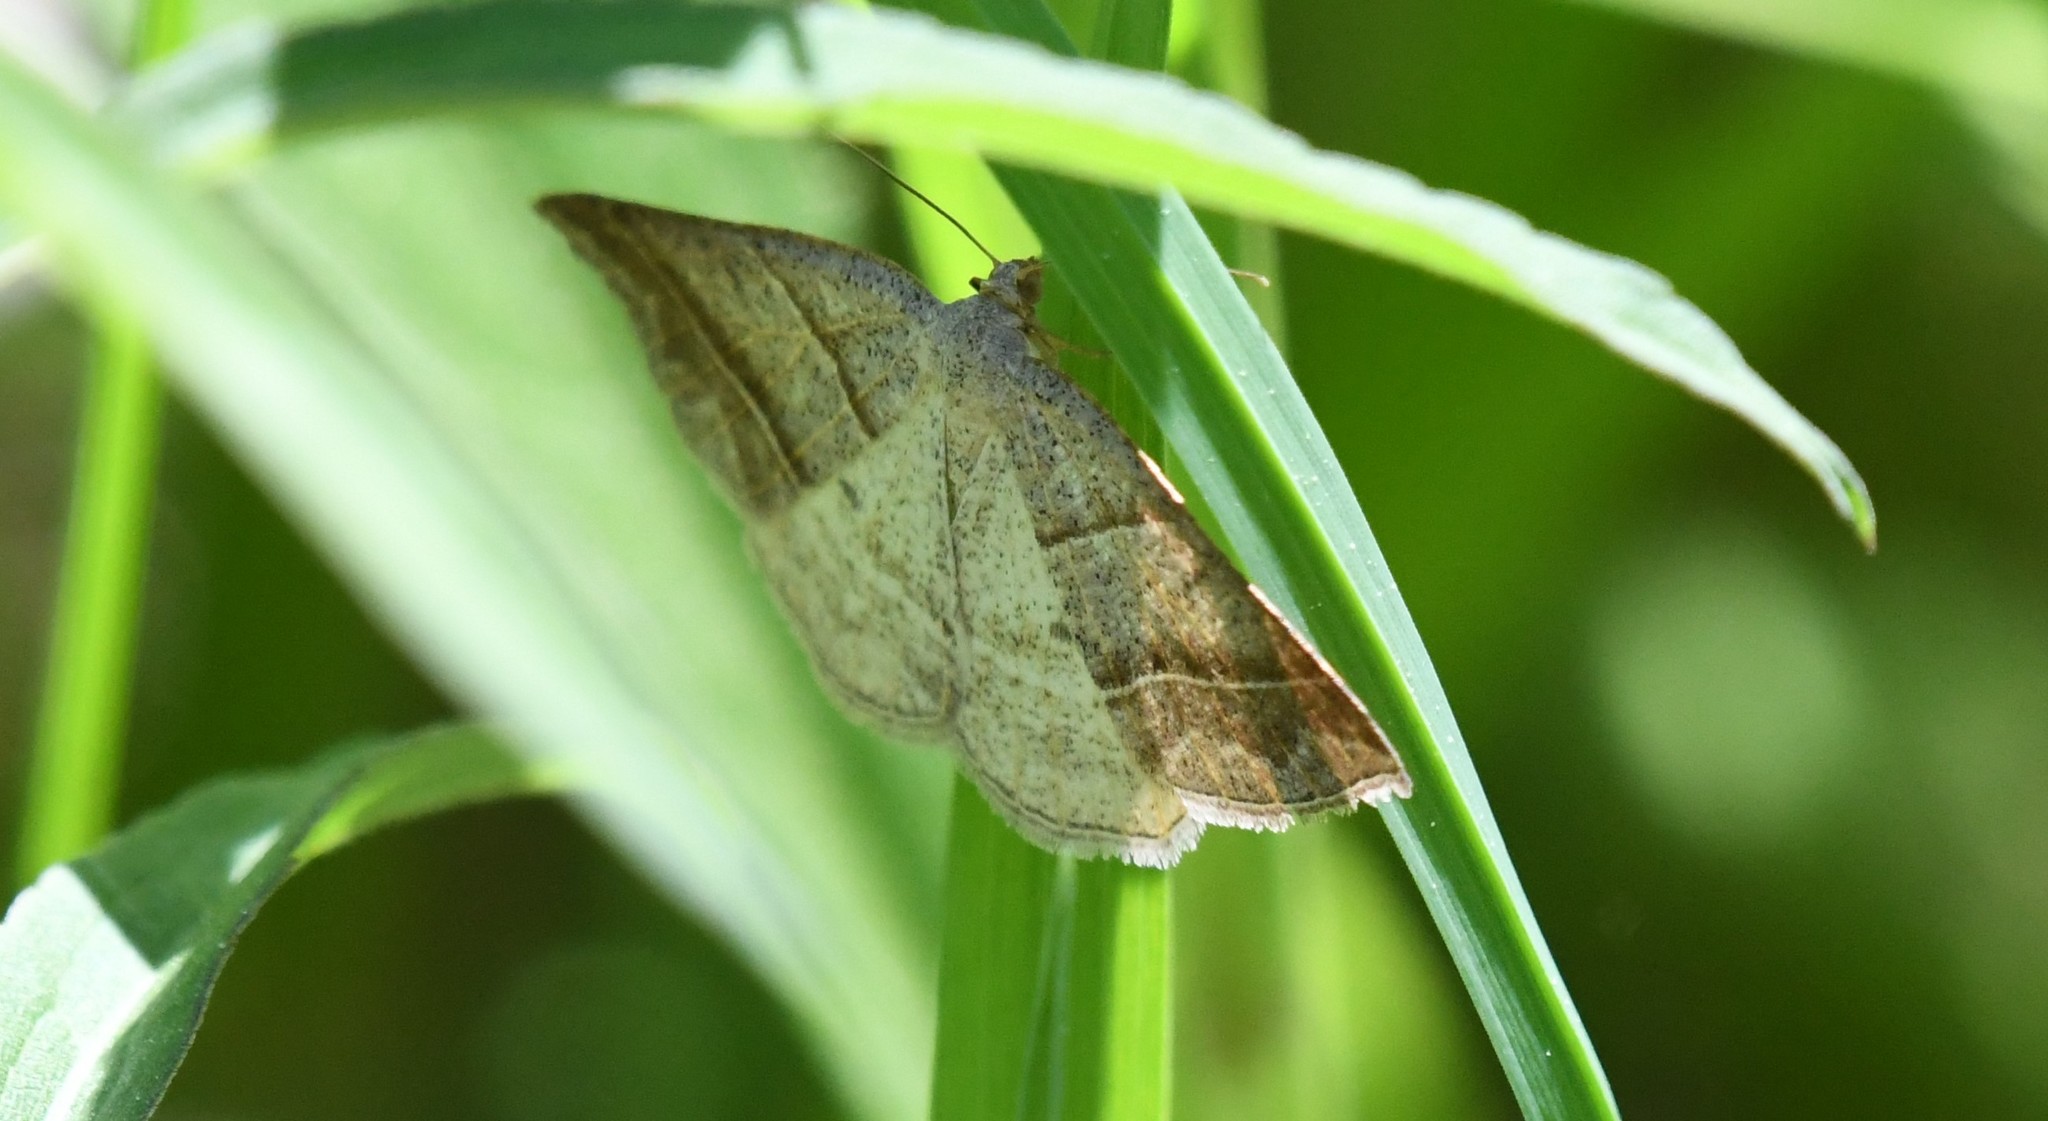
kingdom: Animalia
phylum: Arthropoda
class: Insecta
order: Lepidoptera
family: Pterophoridae
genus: Pterophorus
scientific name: Pterophorus Petrophora subaequaria
